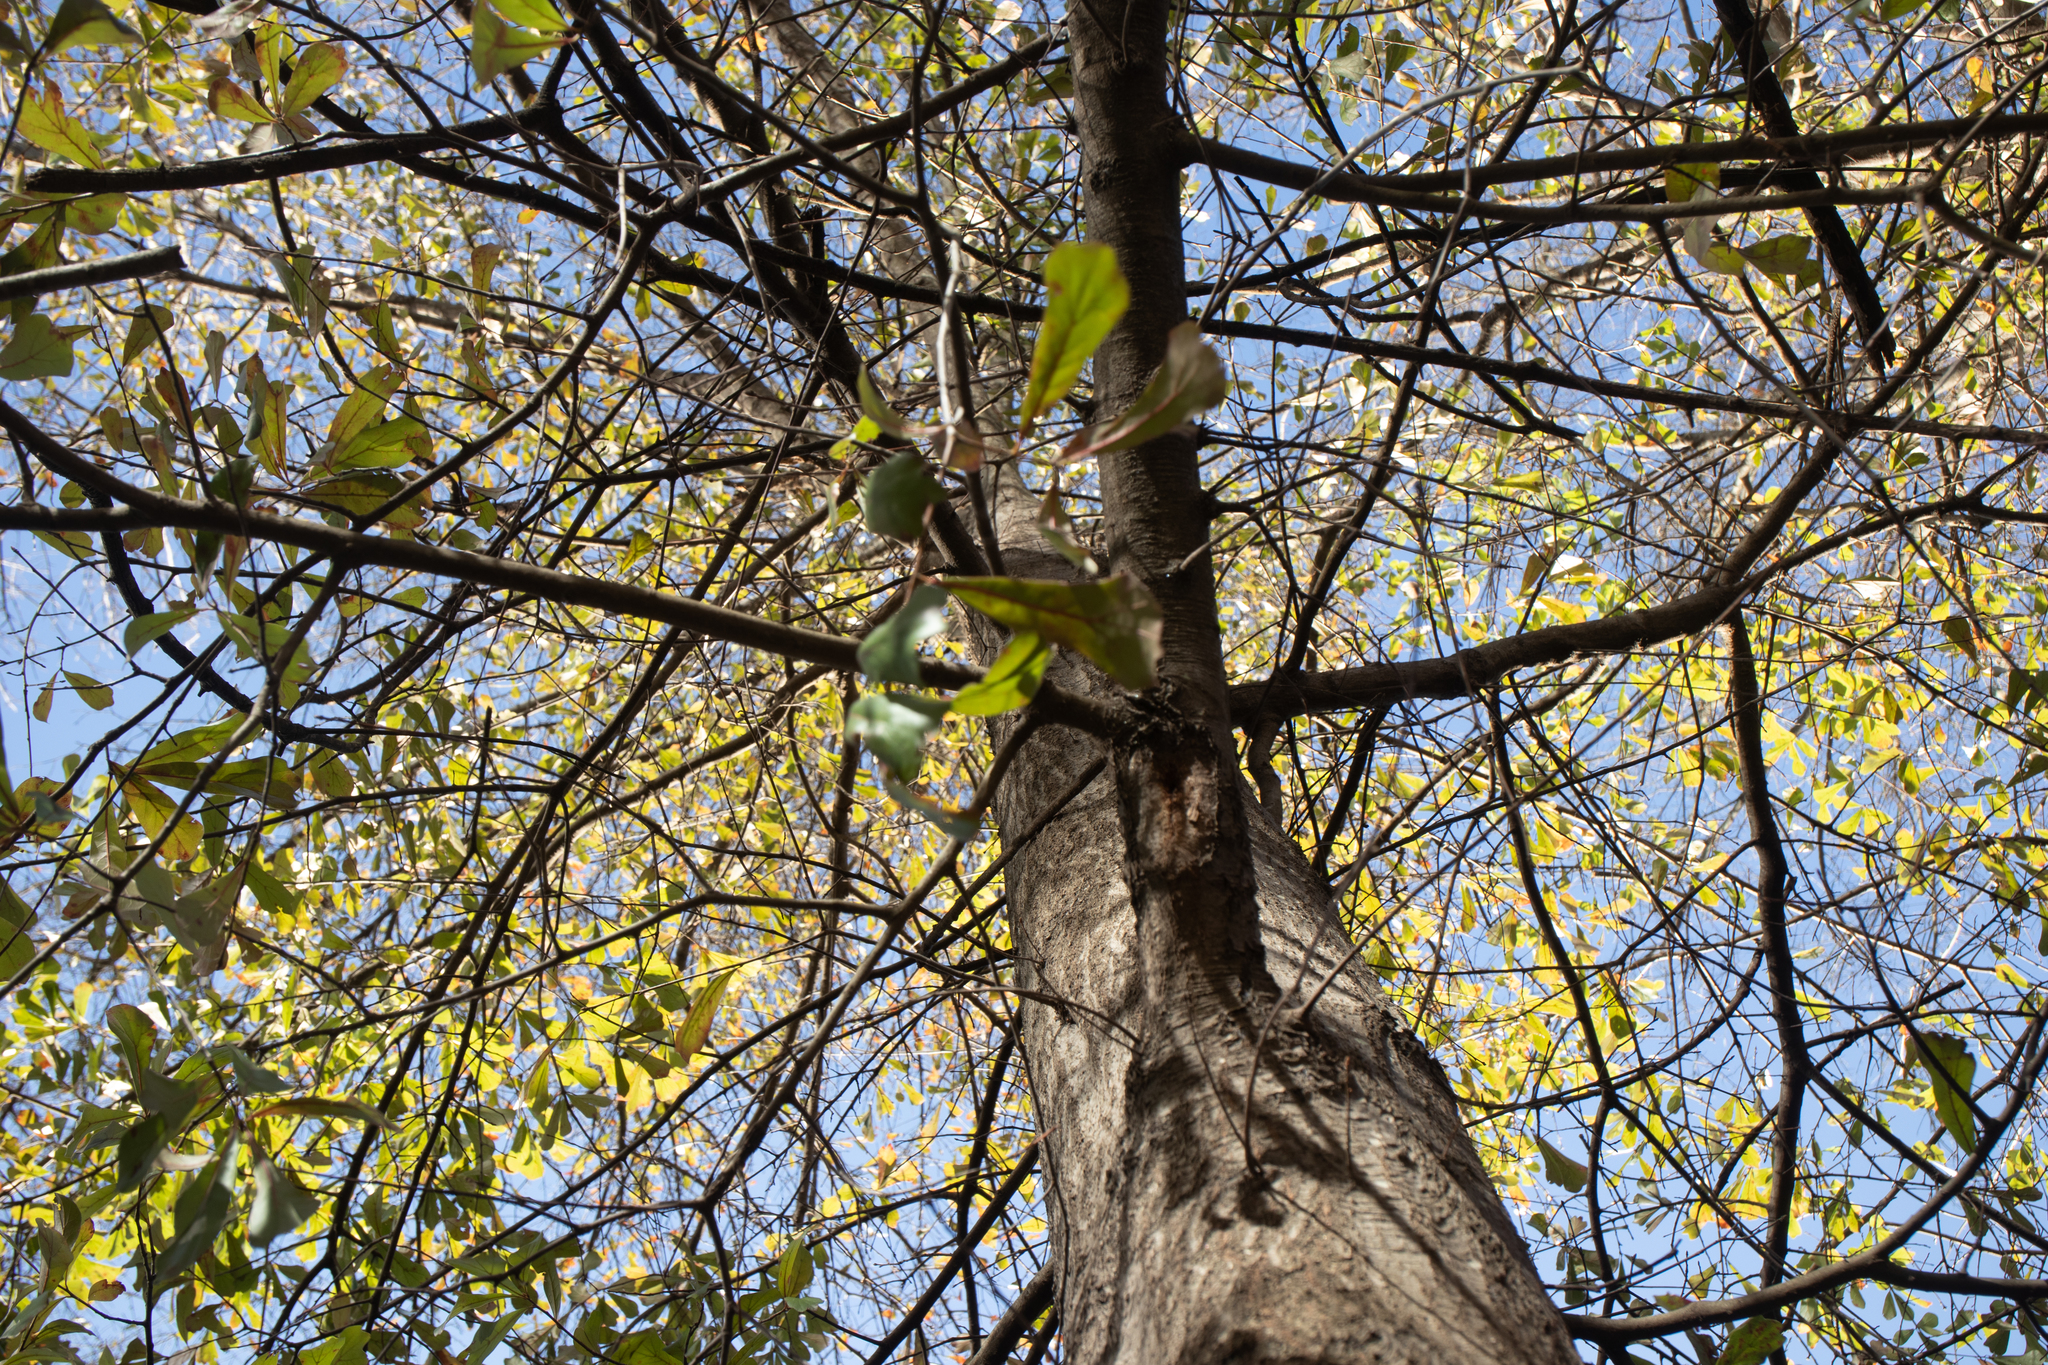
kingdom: Plantae
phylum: Tracheophyta
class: Magnoliopsida
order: Fagales
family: Fagaceae
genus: Quercus
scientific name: Quercus nigra
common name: Water oak
